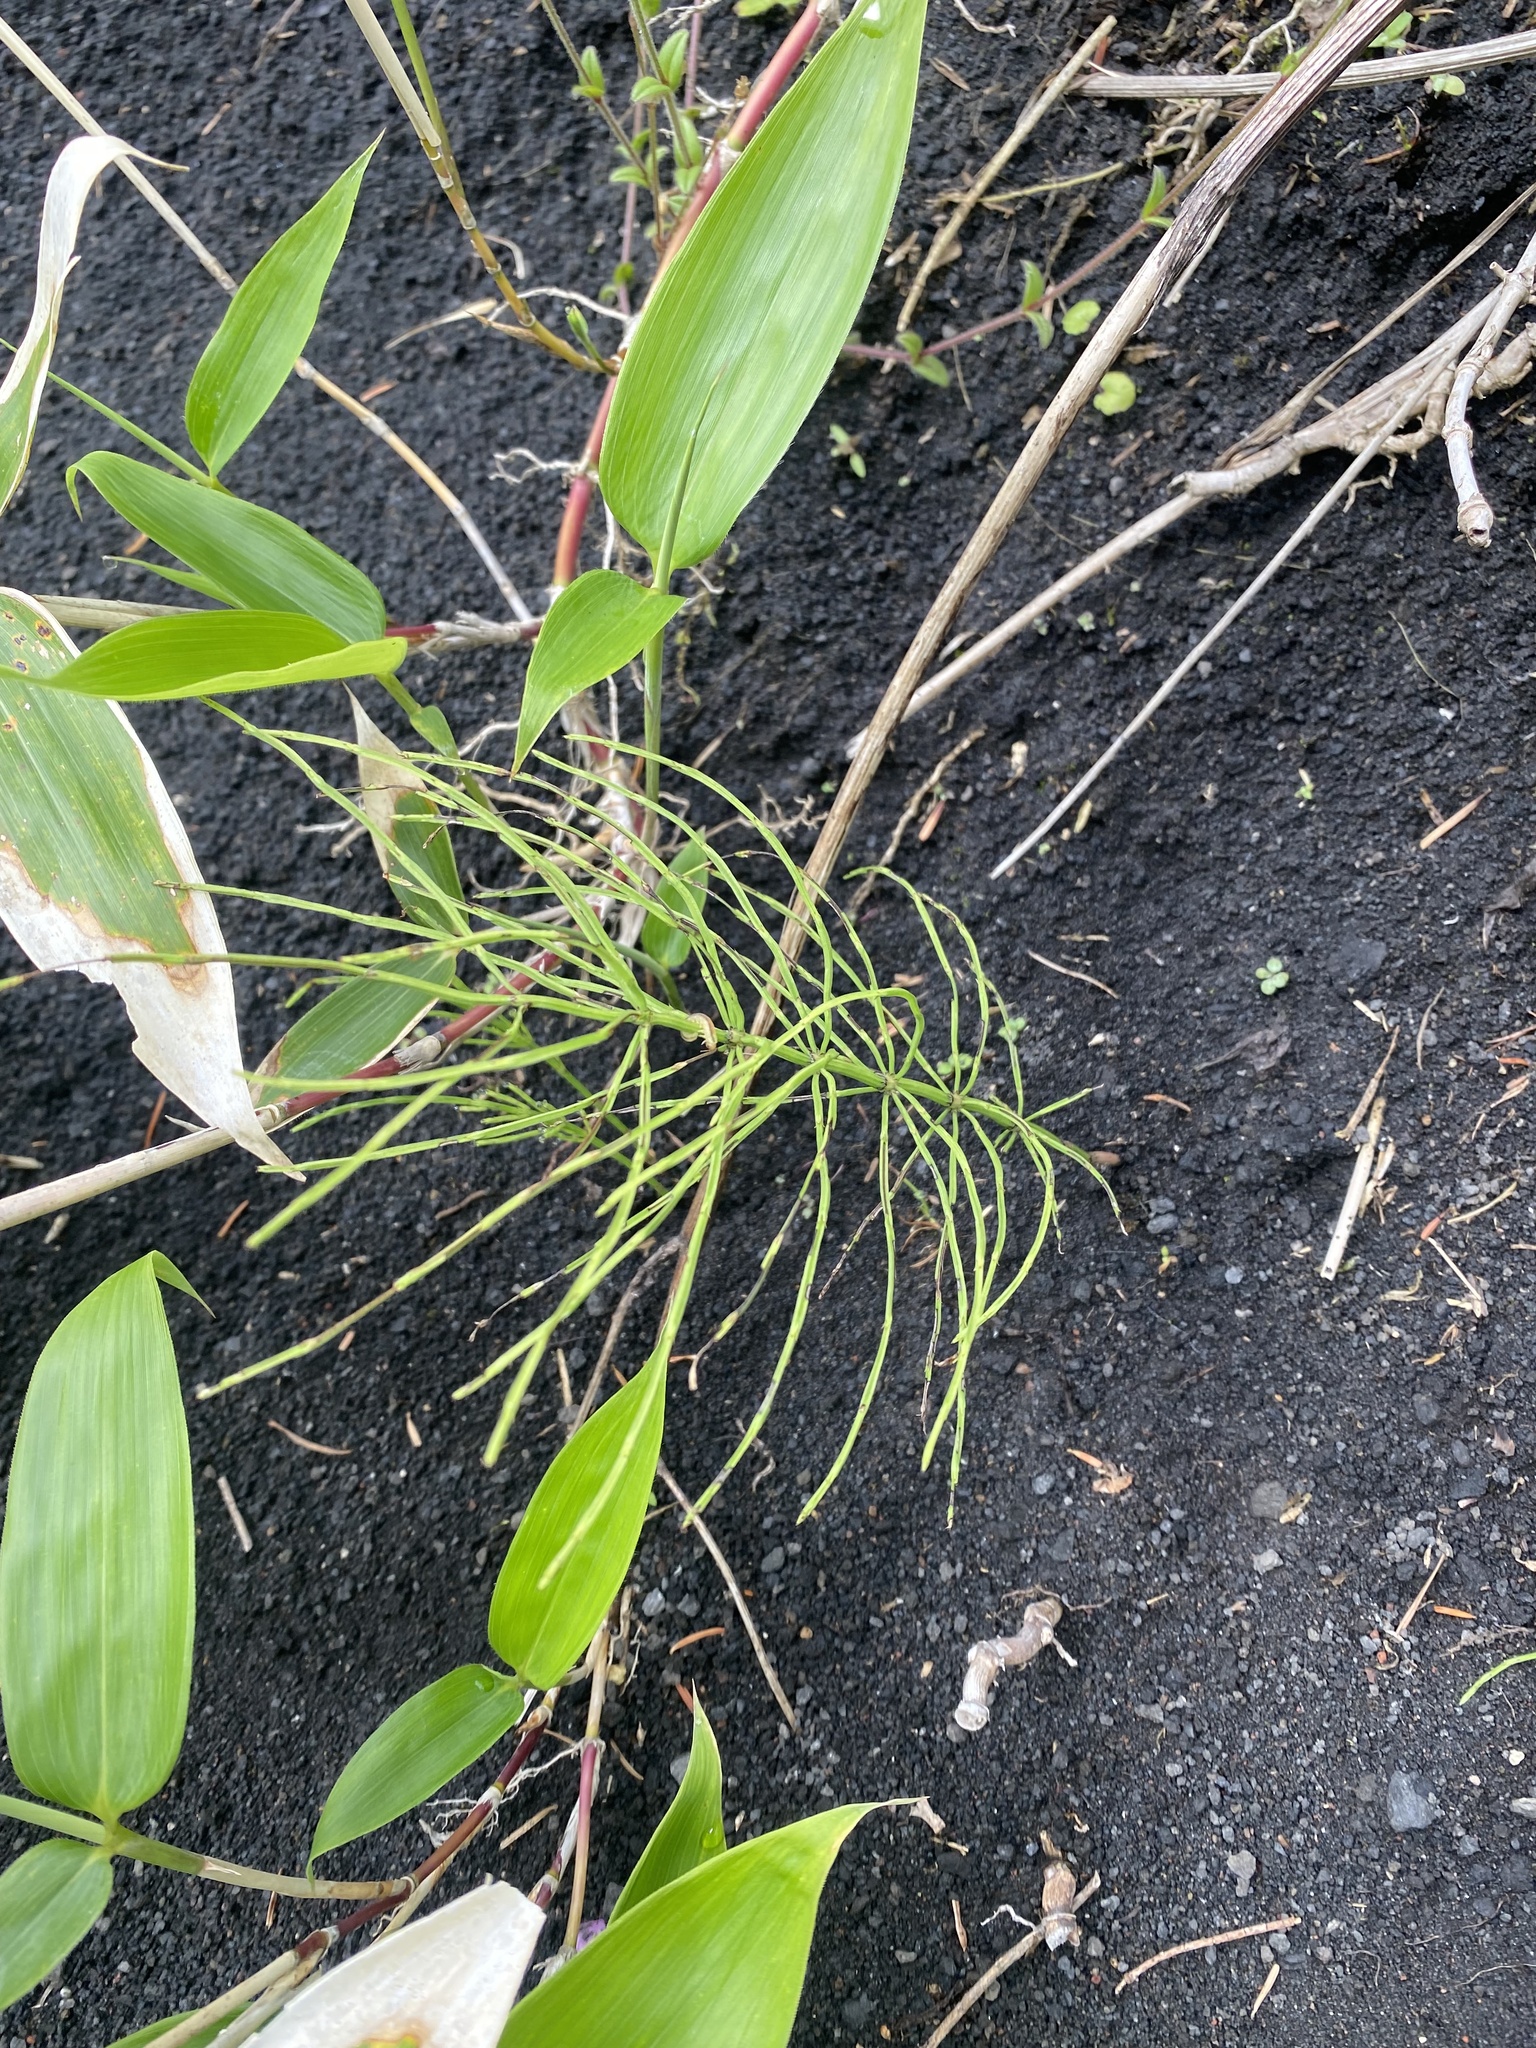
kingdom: Plantae
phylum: Tracheophyta
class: Polypodiopsida
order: Equisetales
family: Equisetaceae
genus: Equisetum
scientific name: Equisetum arvense
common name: Field horsetail
